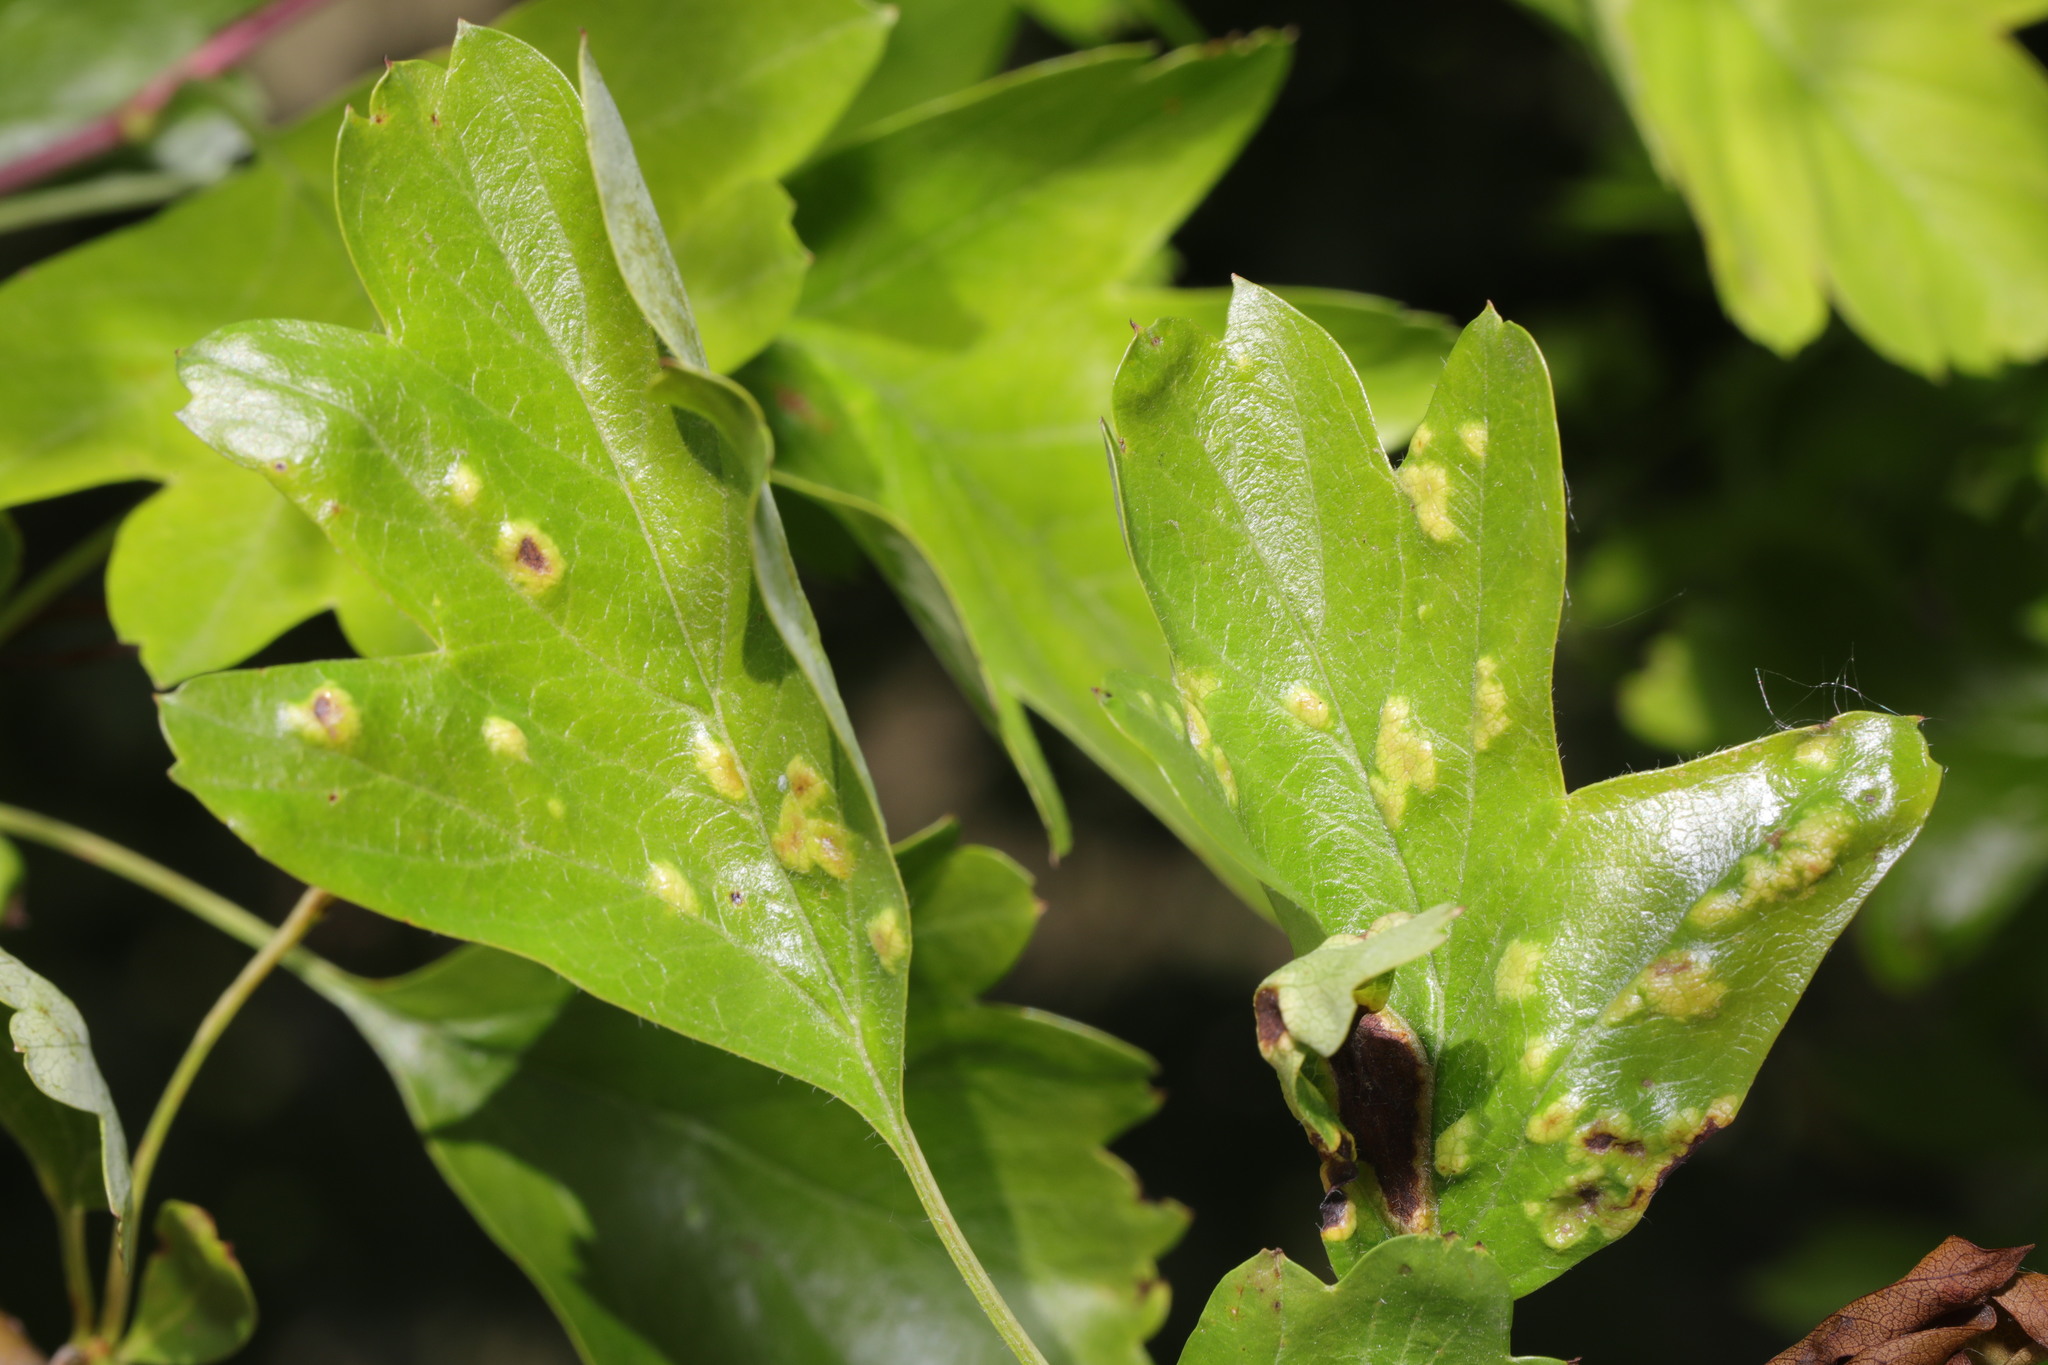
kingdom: Animalia
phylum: Arthropoda
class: Arachnida
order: Trombidiformes
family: Eriophyidae
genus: Eriophyes
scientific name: Eriophyes crataegi
